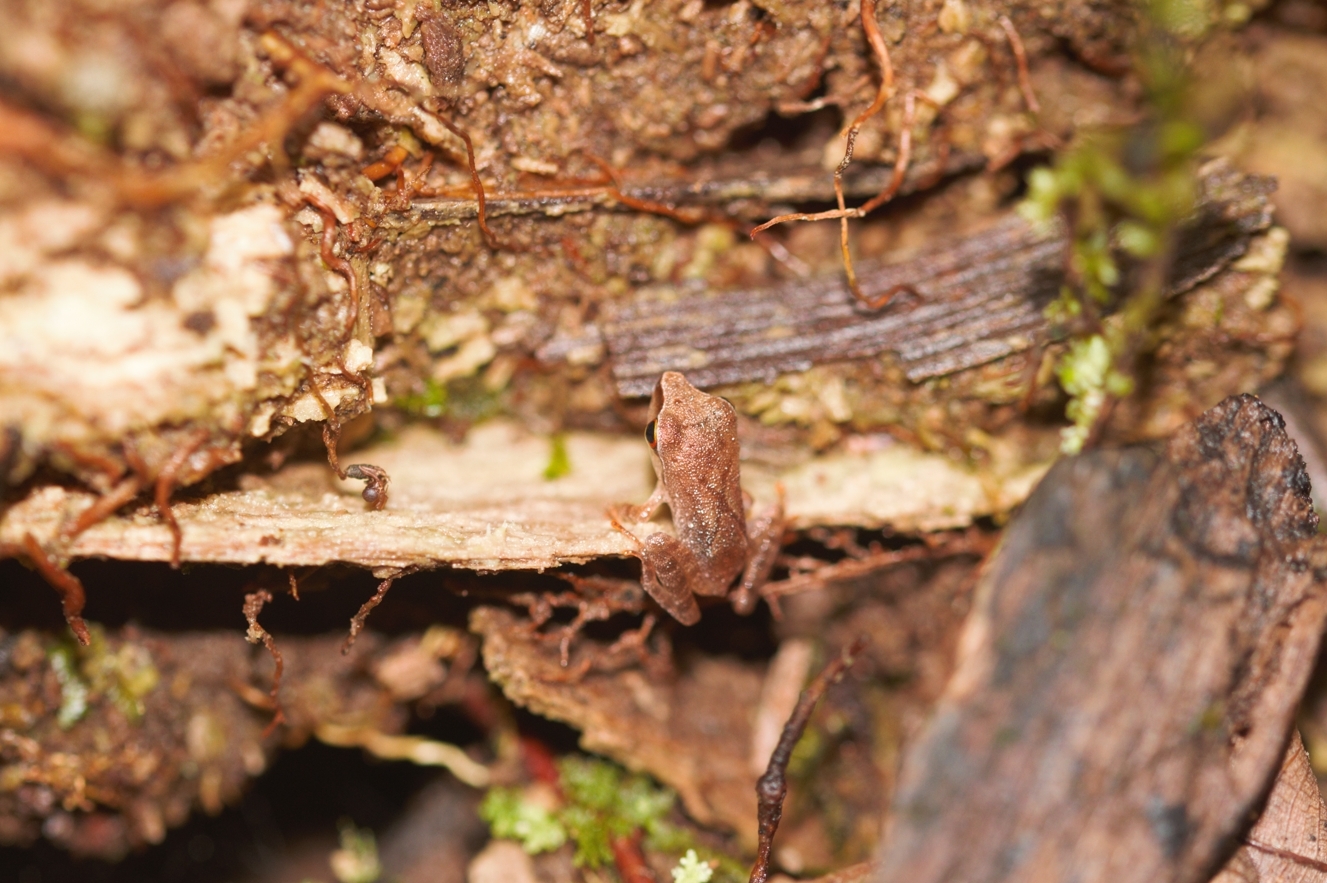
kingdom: Animalia
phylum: Chordata
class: Amphibia
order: Anura
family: Craugastoridae
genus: Pristimantis
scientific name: Pristimantis chiastonotus
